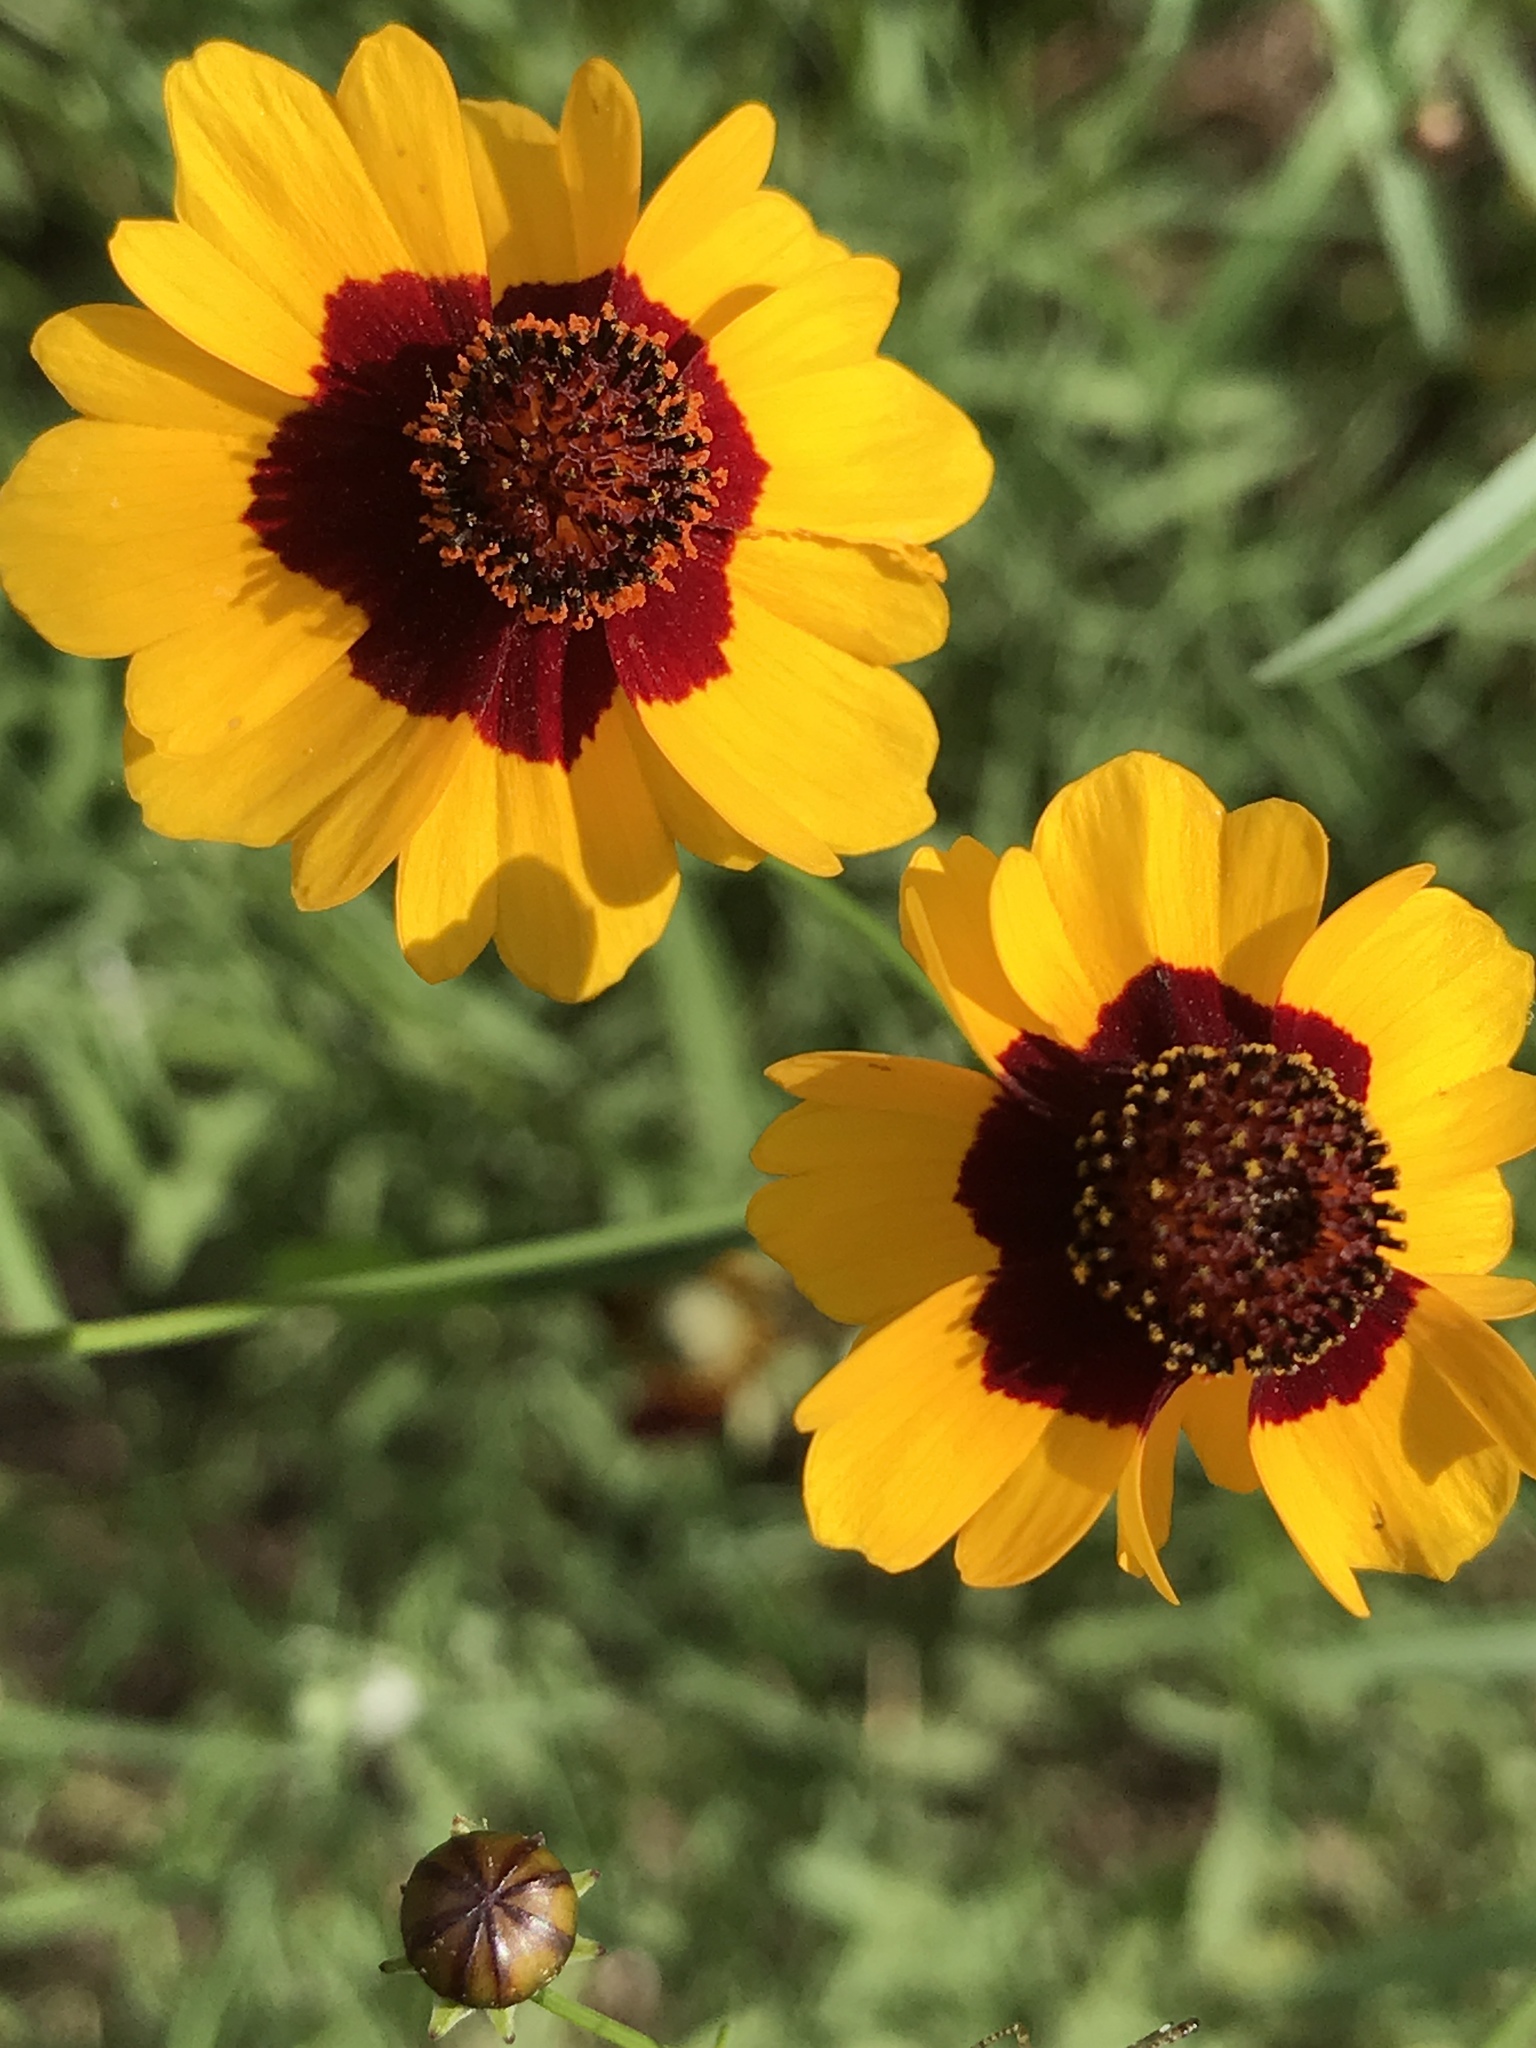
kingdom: Plantae
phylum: Tracheophyta
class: Magnoliopsida
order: Asterales
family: Asteraceae
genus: Coreopsis
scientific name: Coreopsis tinctoria
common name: Garden tickseed
